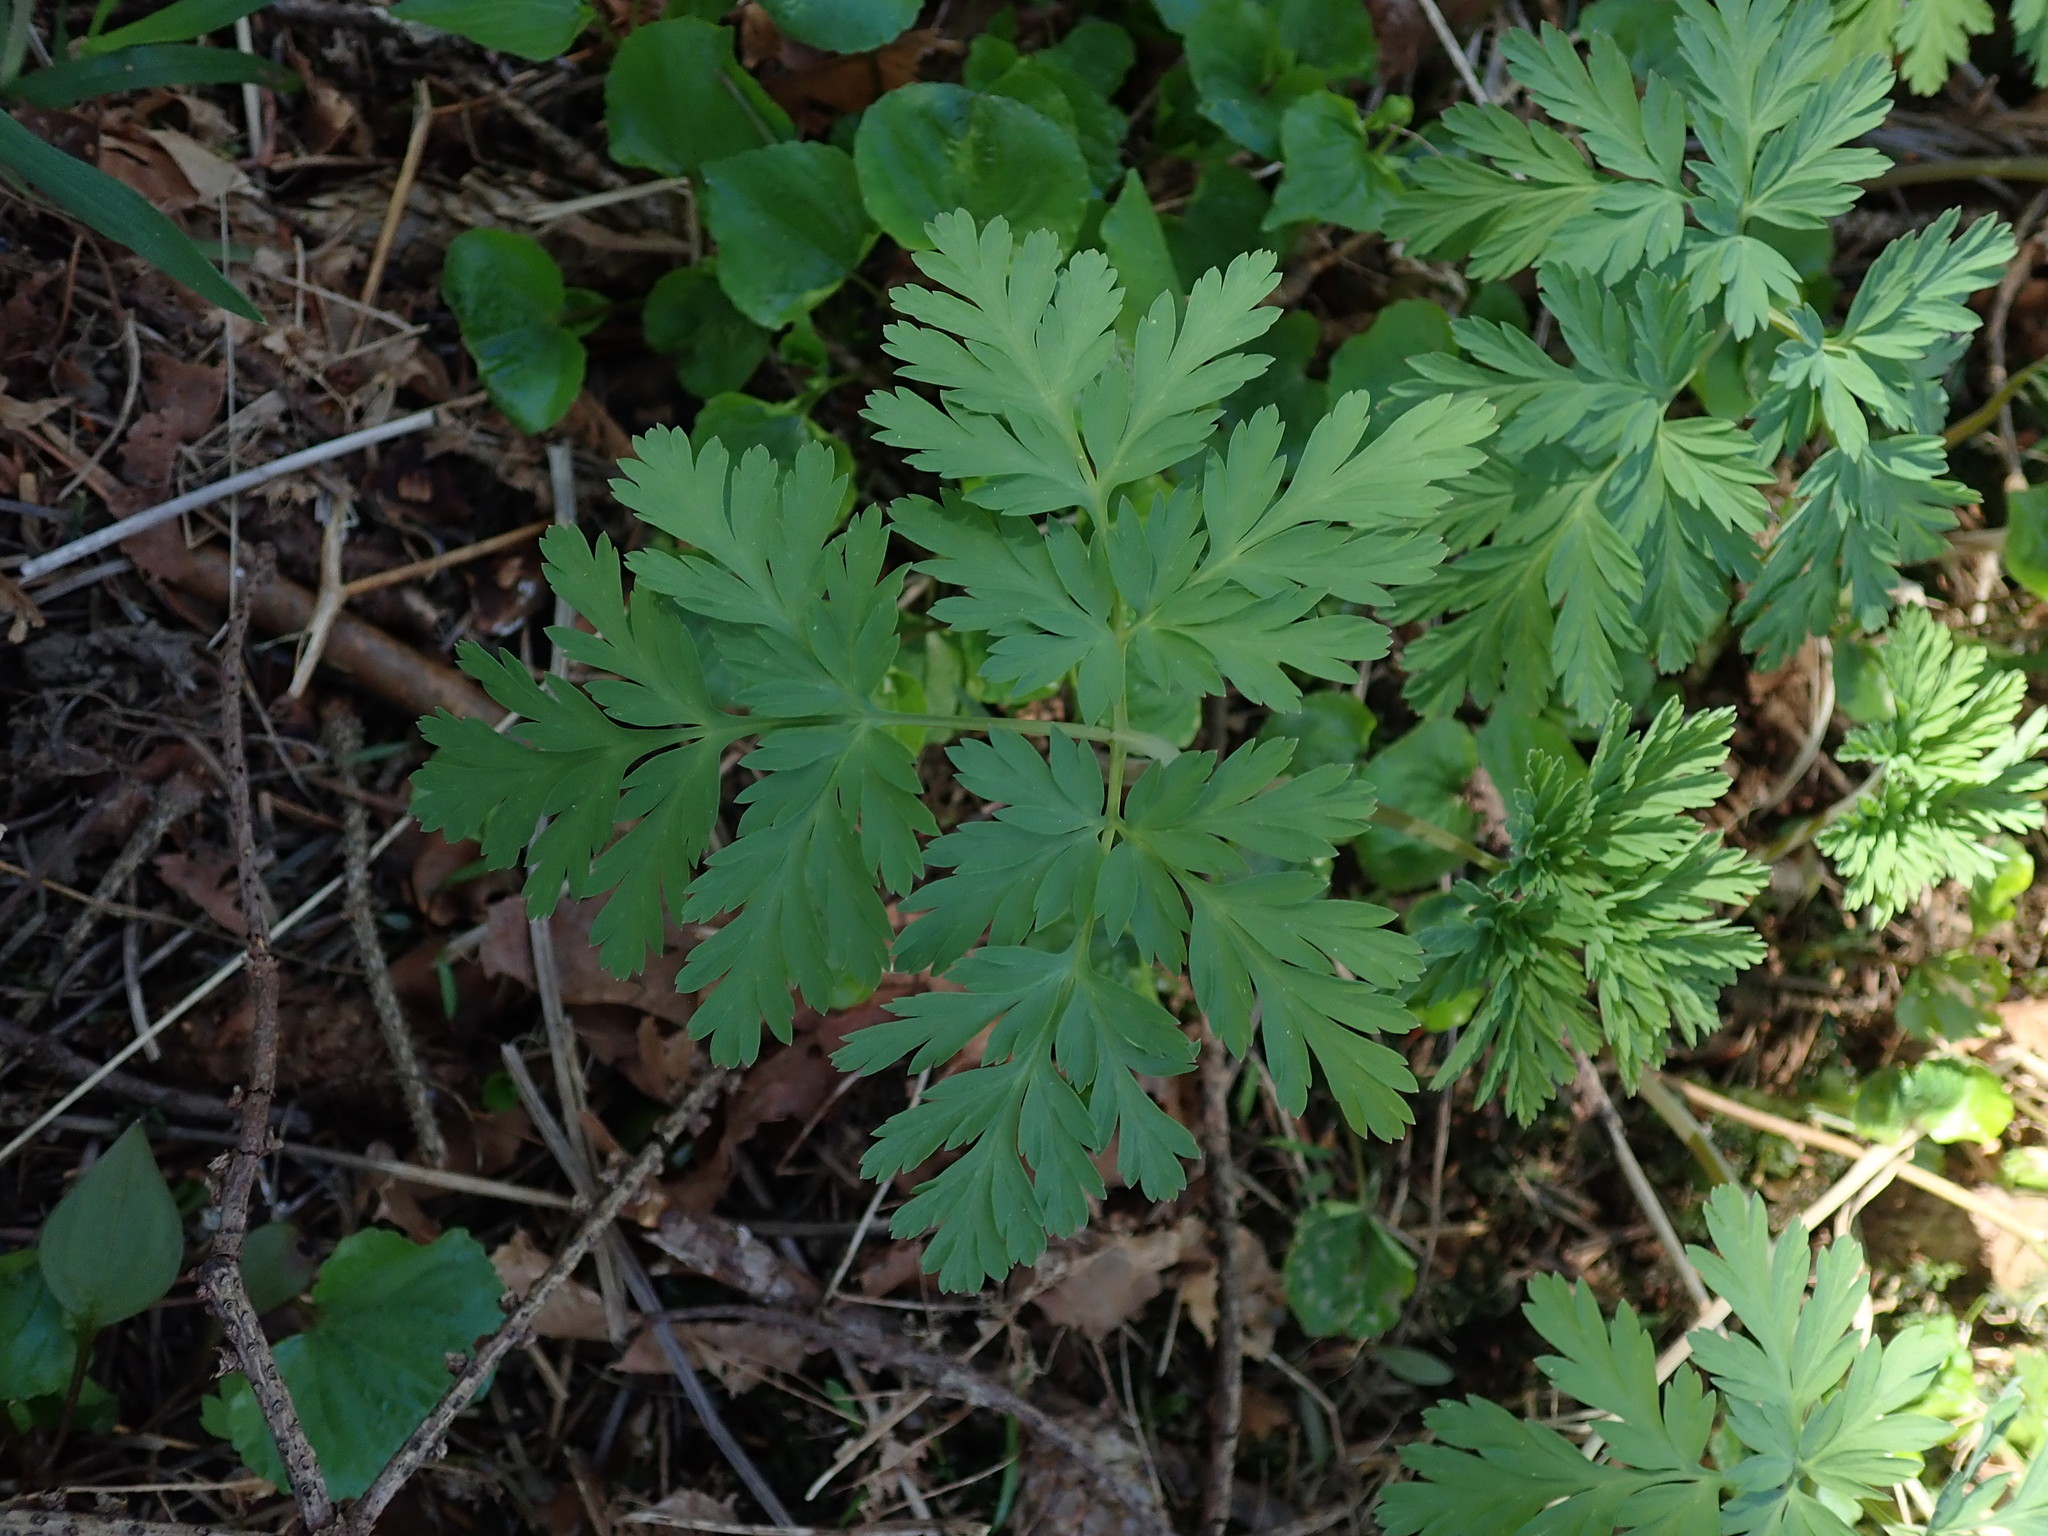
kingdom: Plantae
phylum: Tracheophyta
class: Magnoliopsida
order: Ranunculales
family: Papaveraceae
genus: Dicentra
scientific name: Dicentra formosa
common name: Bleeding-heart
